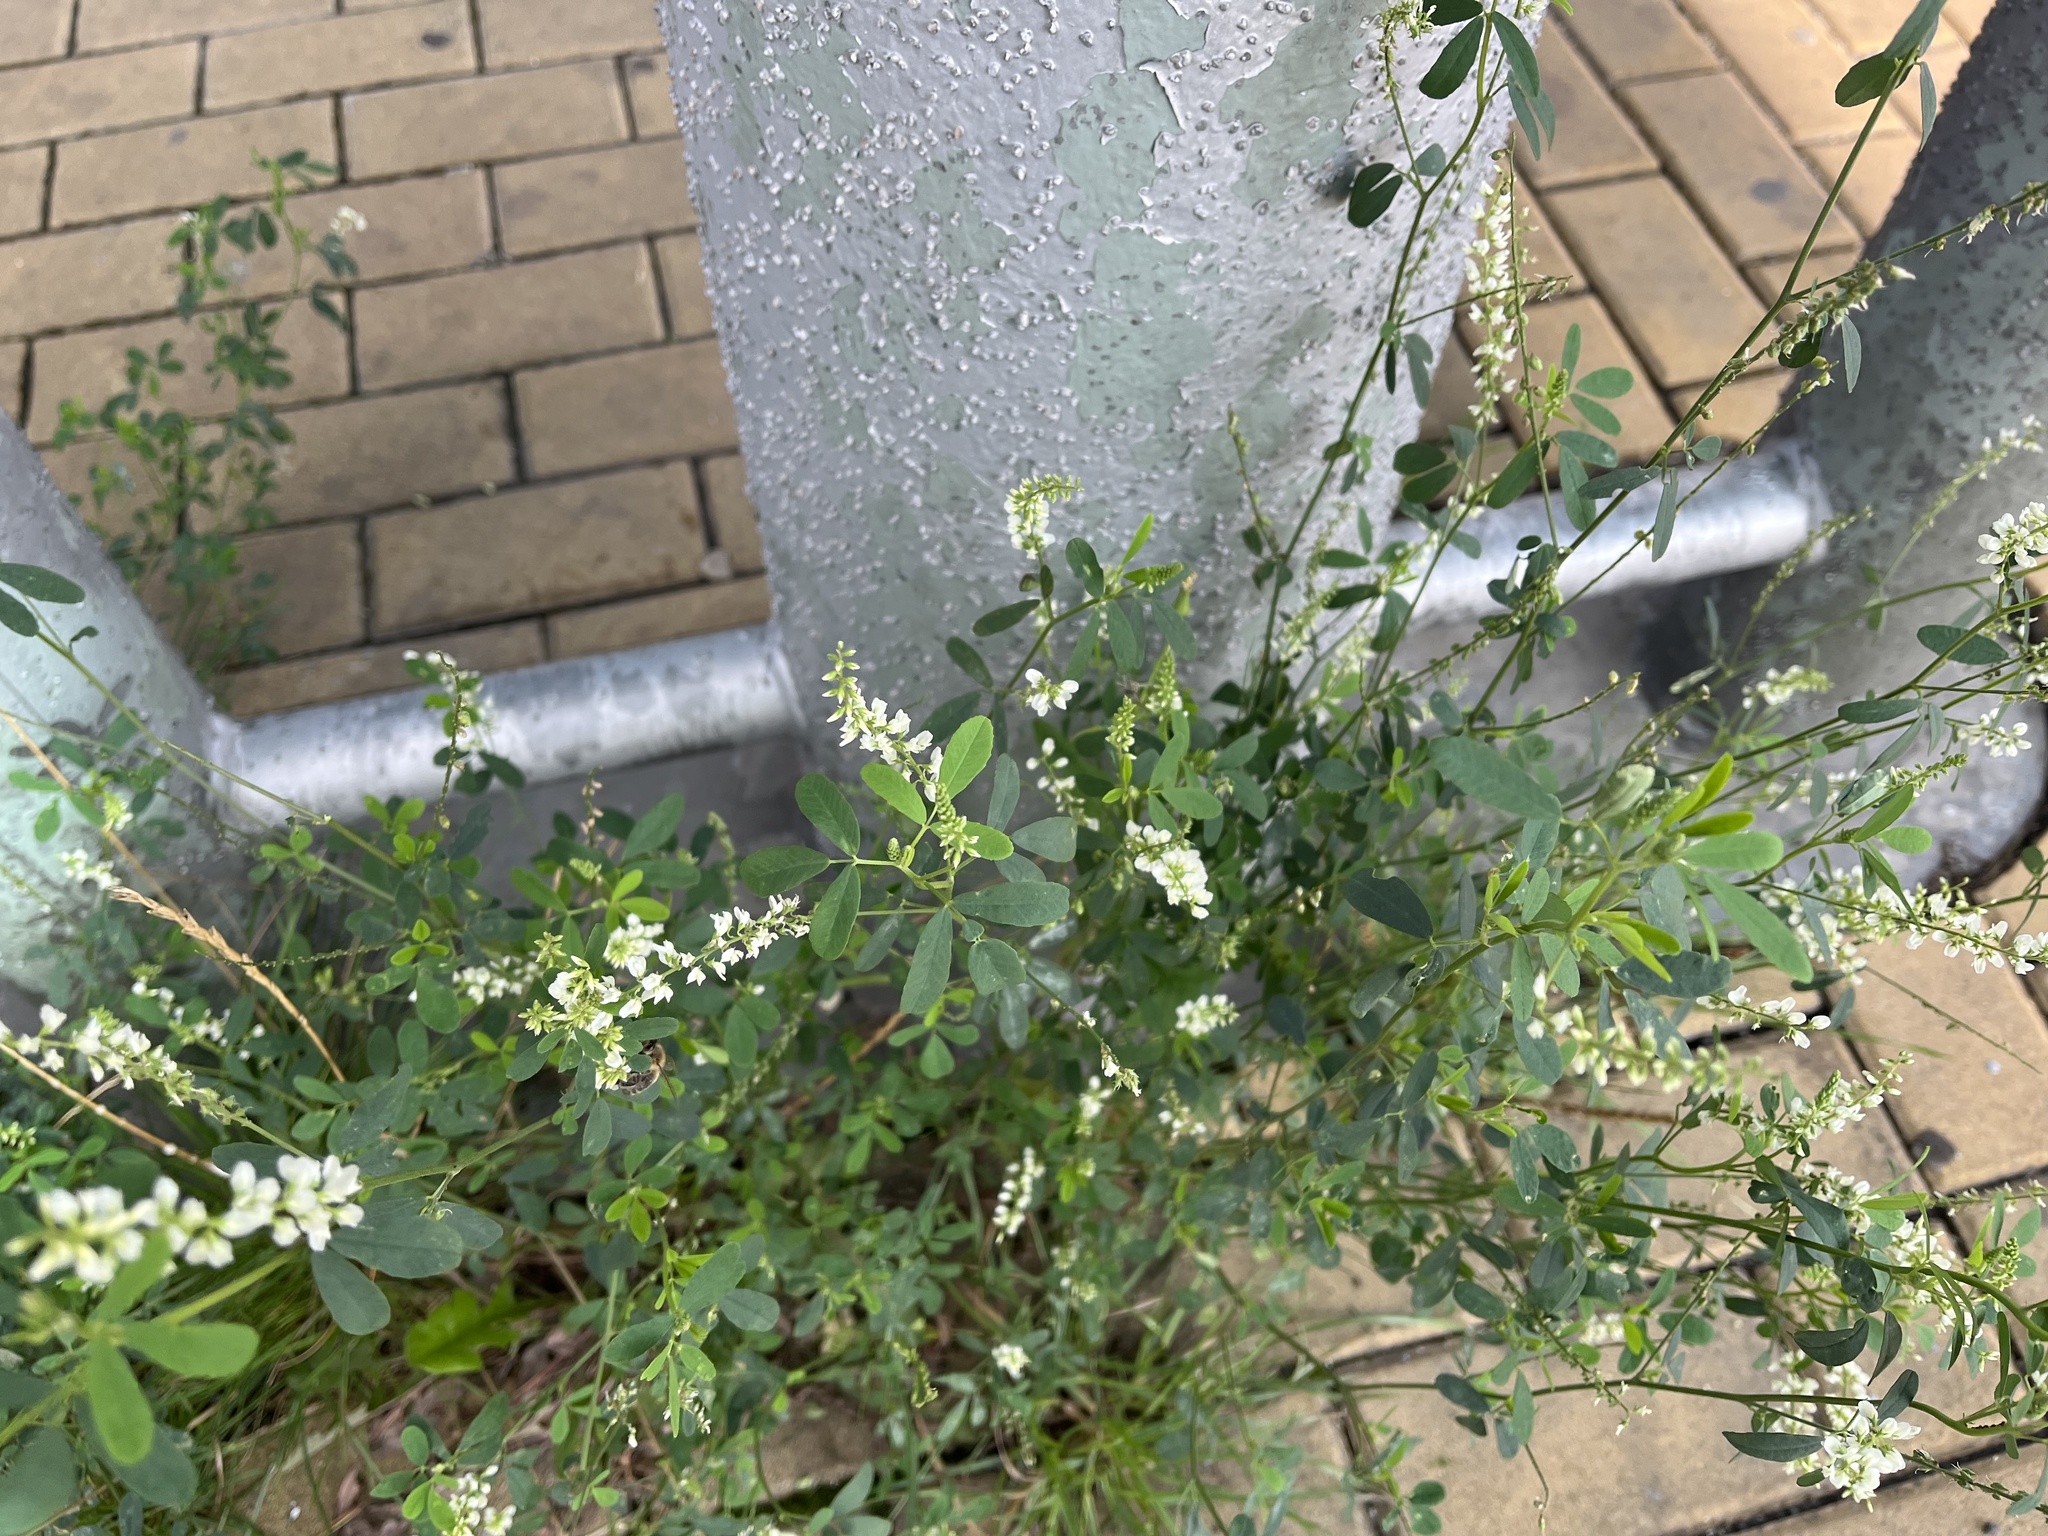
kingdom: Plantae
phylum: Tracheophyta
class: Magnoliopsida
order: Fabales
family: Fabaceae
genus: Melilotus
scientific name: Melilotus albus
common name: White melilot
